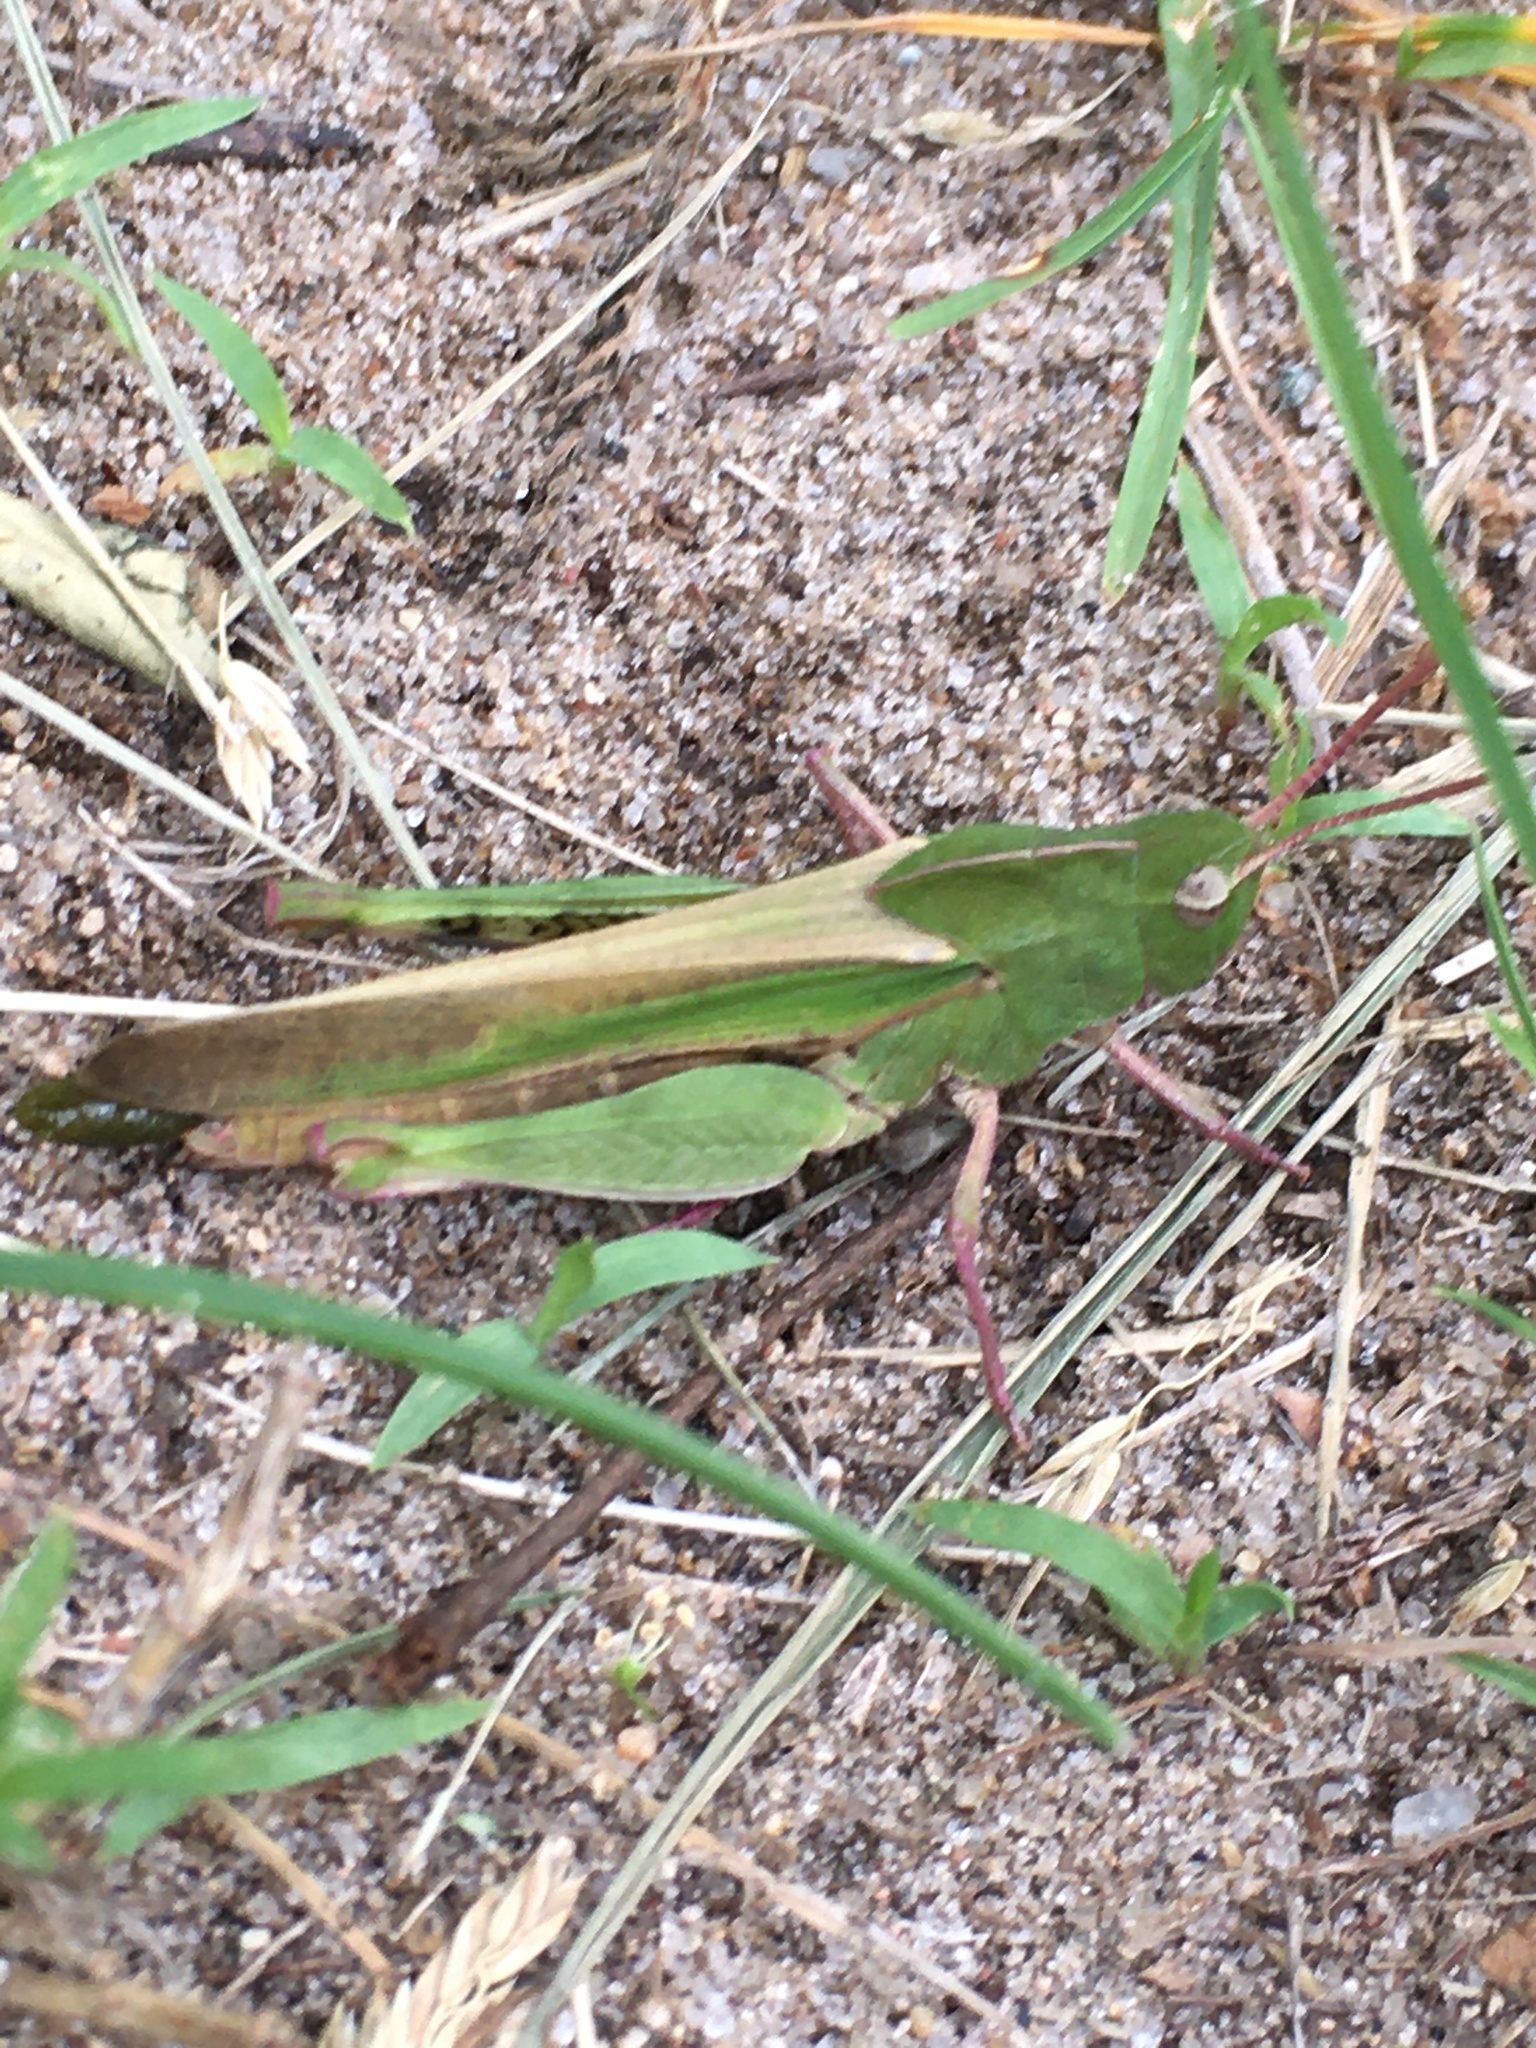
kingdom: Animalia
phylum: Arthropoda
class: Insecta
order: Orthoptera
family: Acrididae
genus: Chortophaga
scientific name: Chortophaga viridifasciata
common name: Green-striped grasshopper
